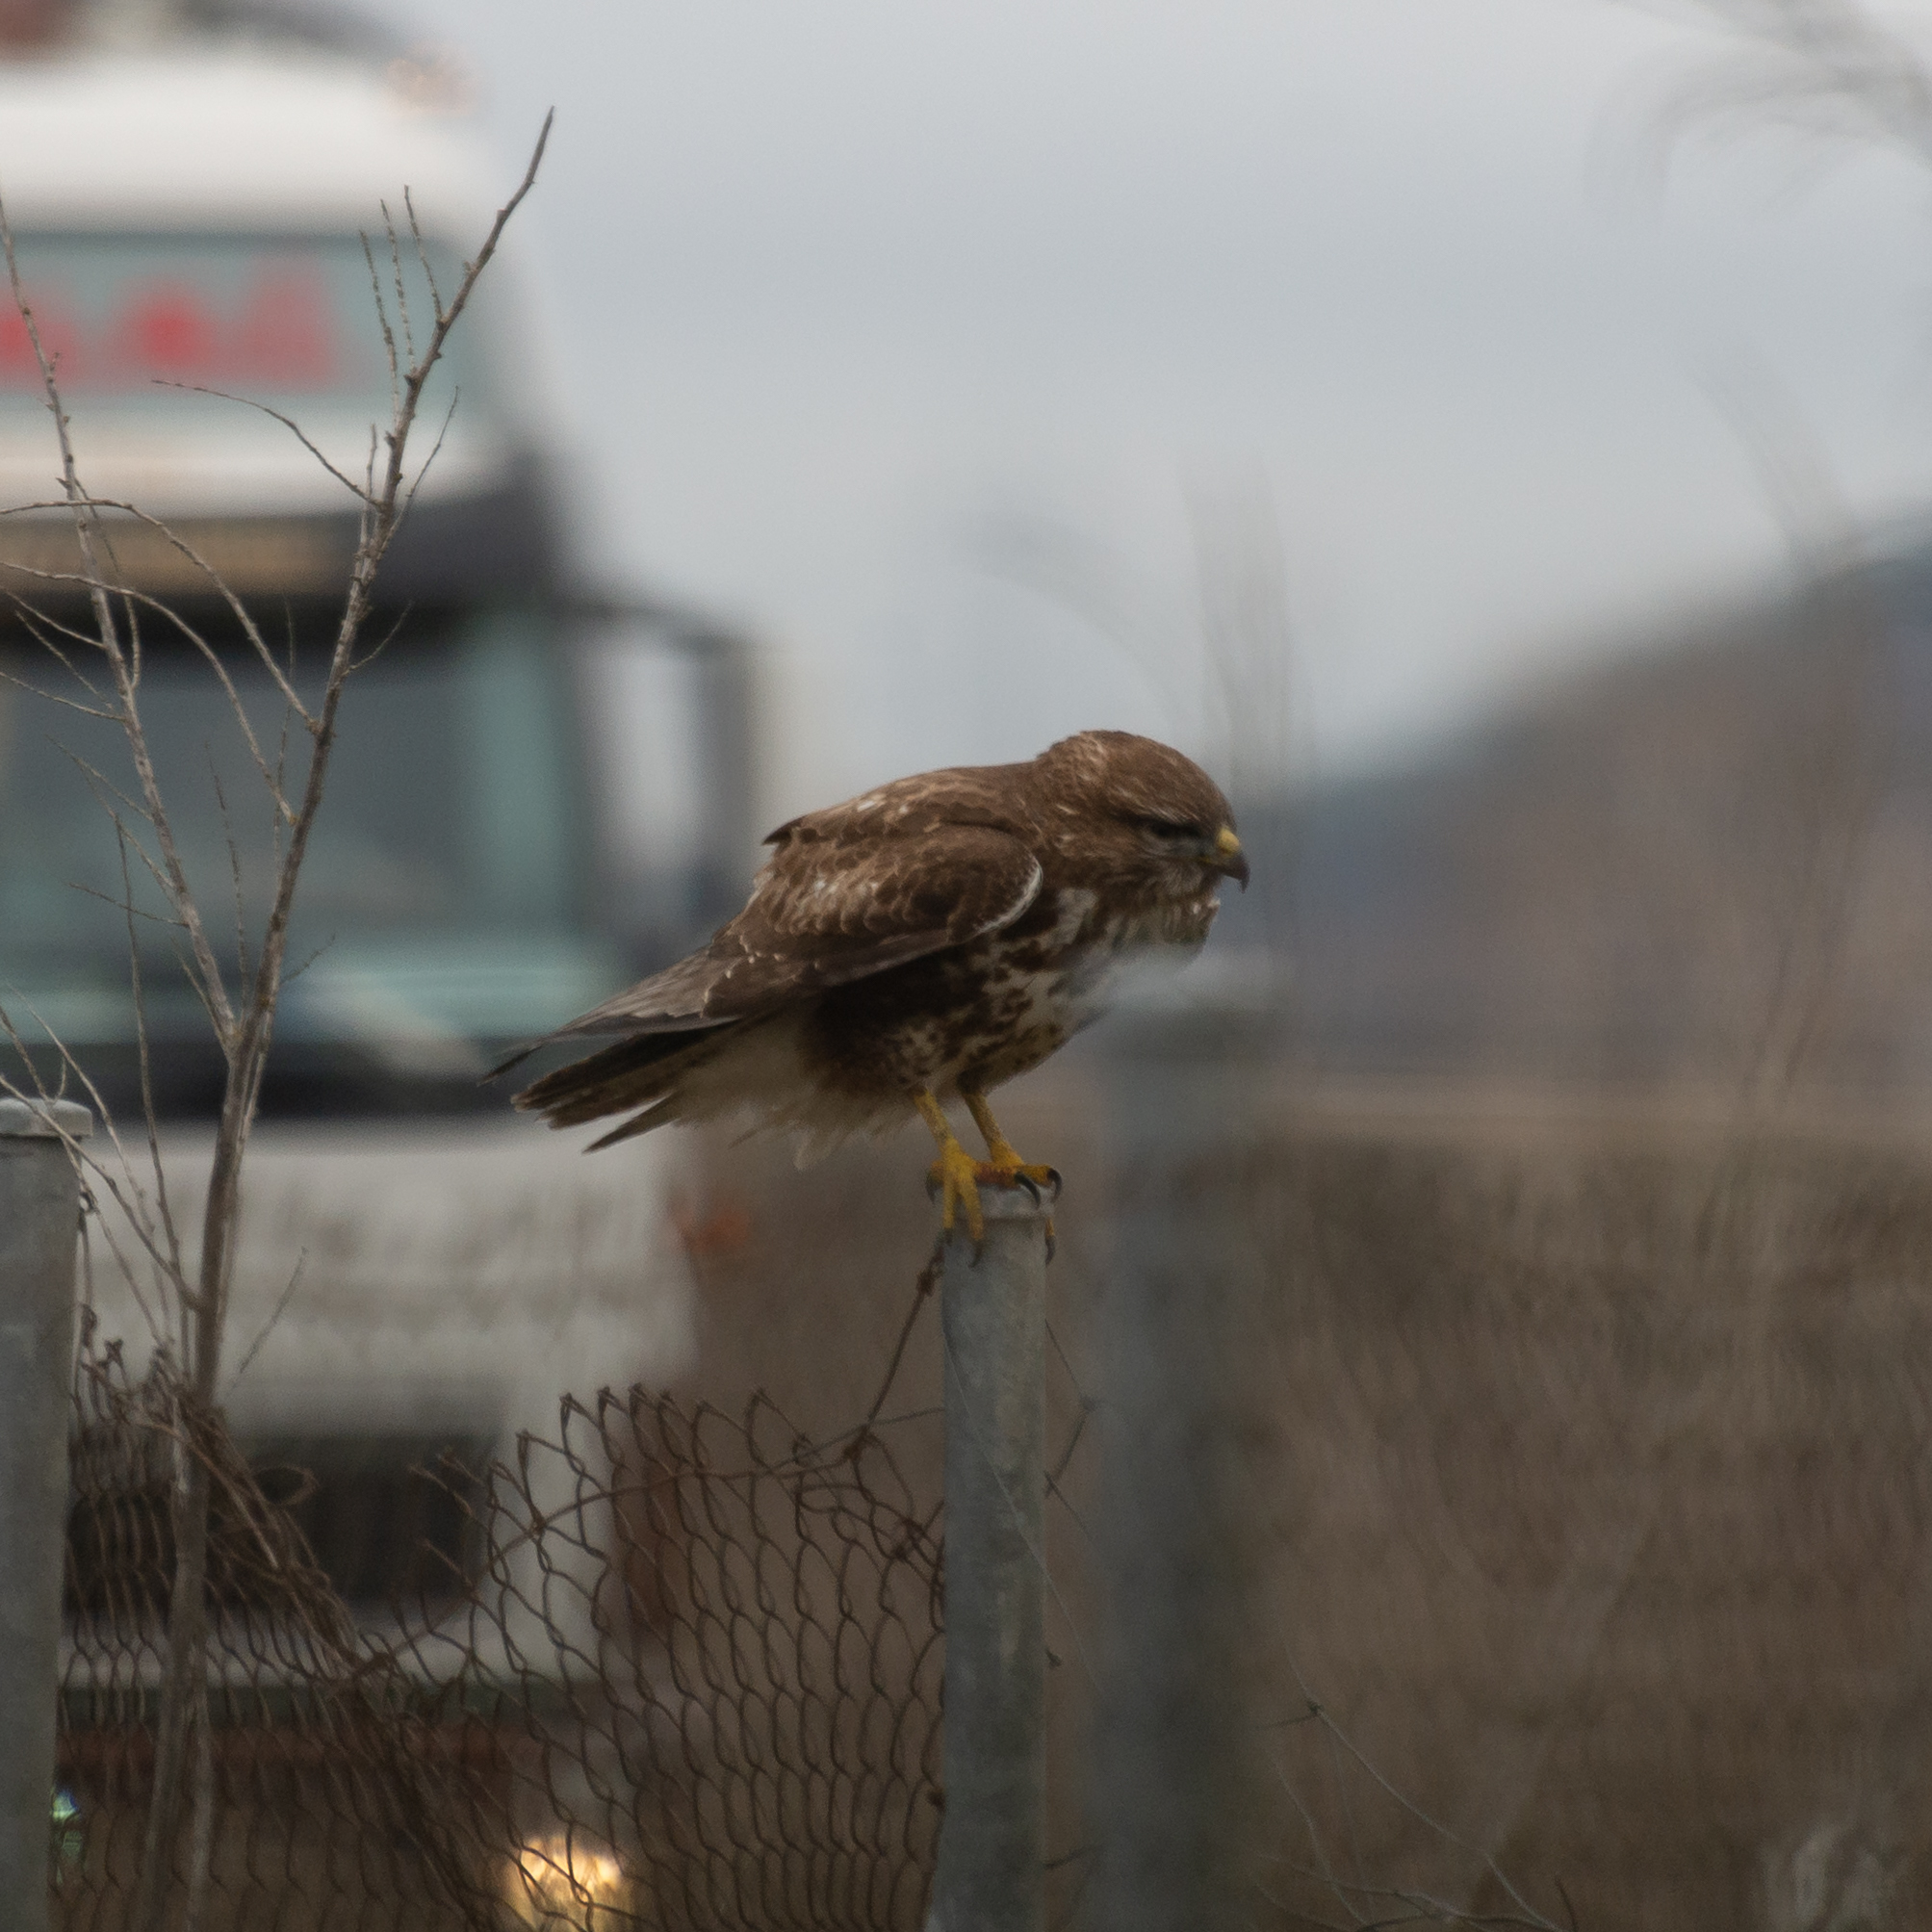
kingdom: Animalia
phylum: Chordata
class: Aves
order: Accipitriformes
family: Accipitridae
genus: Buteo
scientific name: Buteo buteo
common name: Common buzzard
